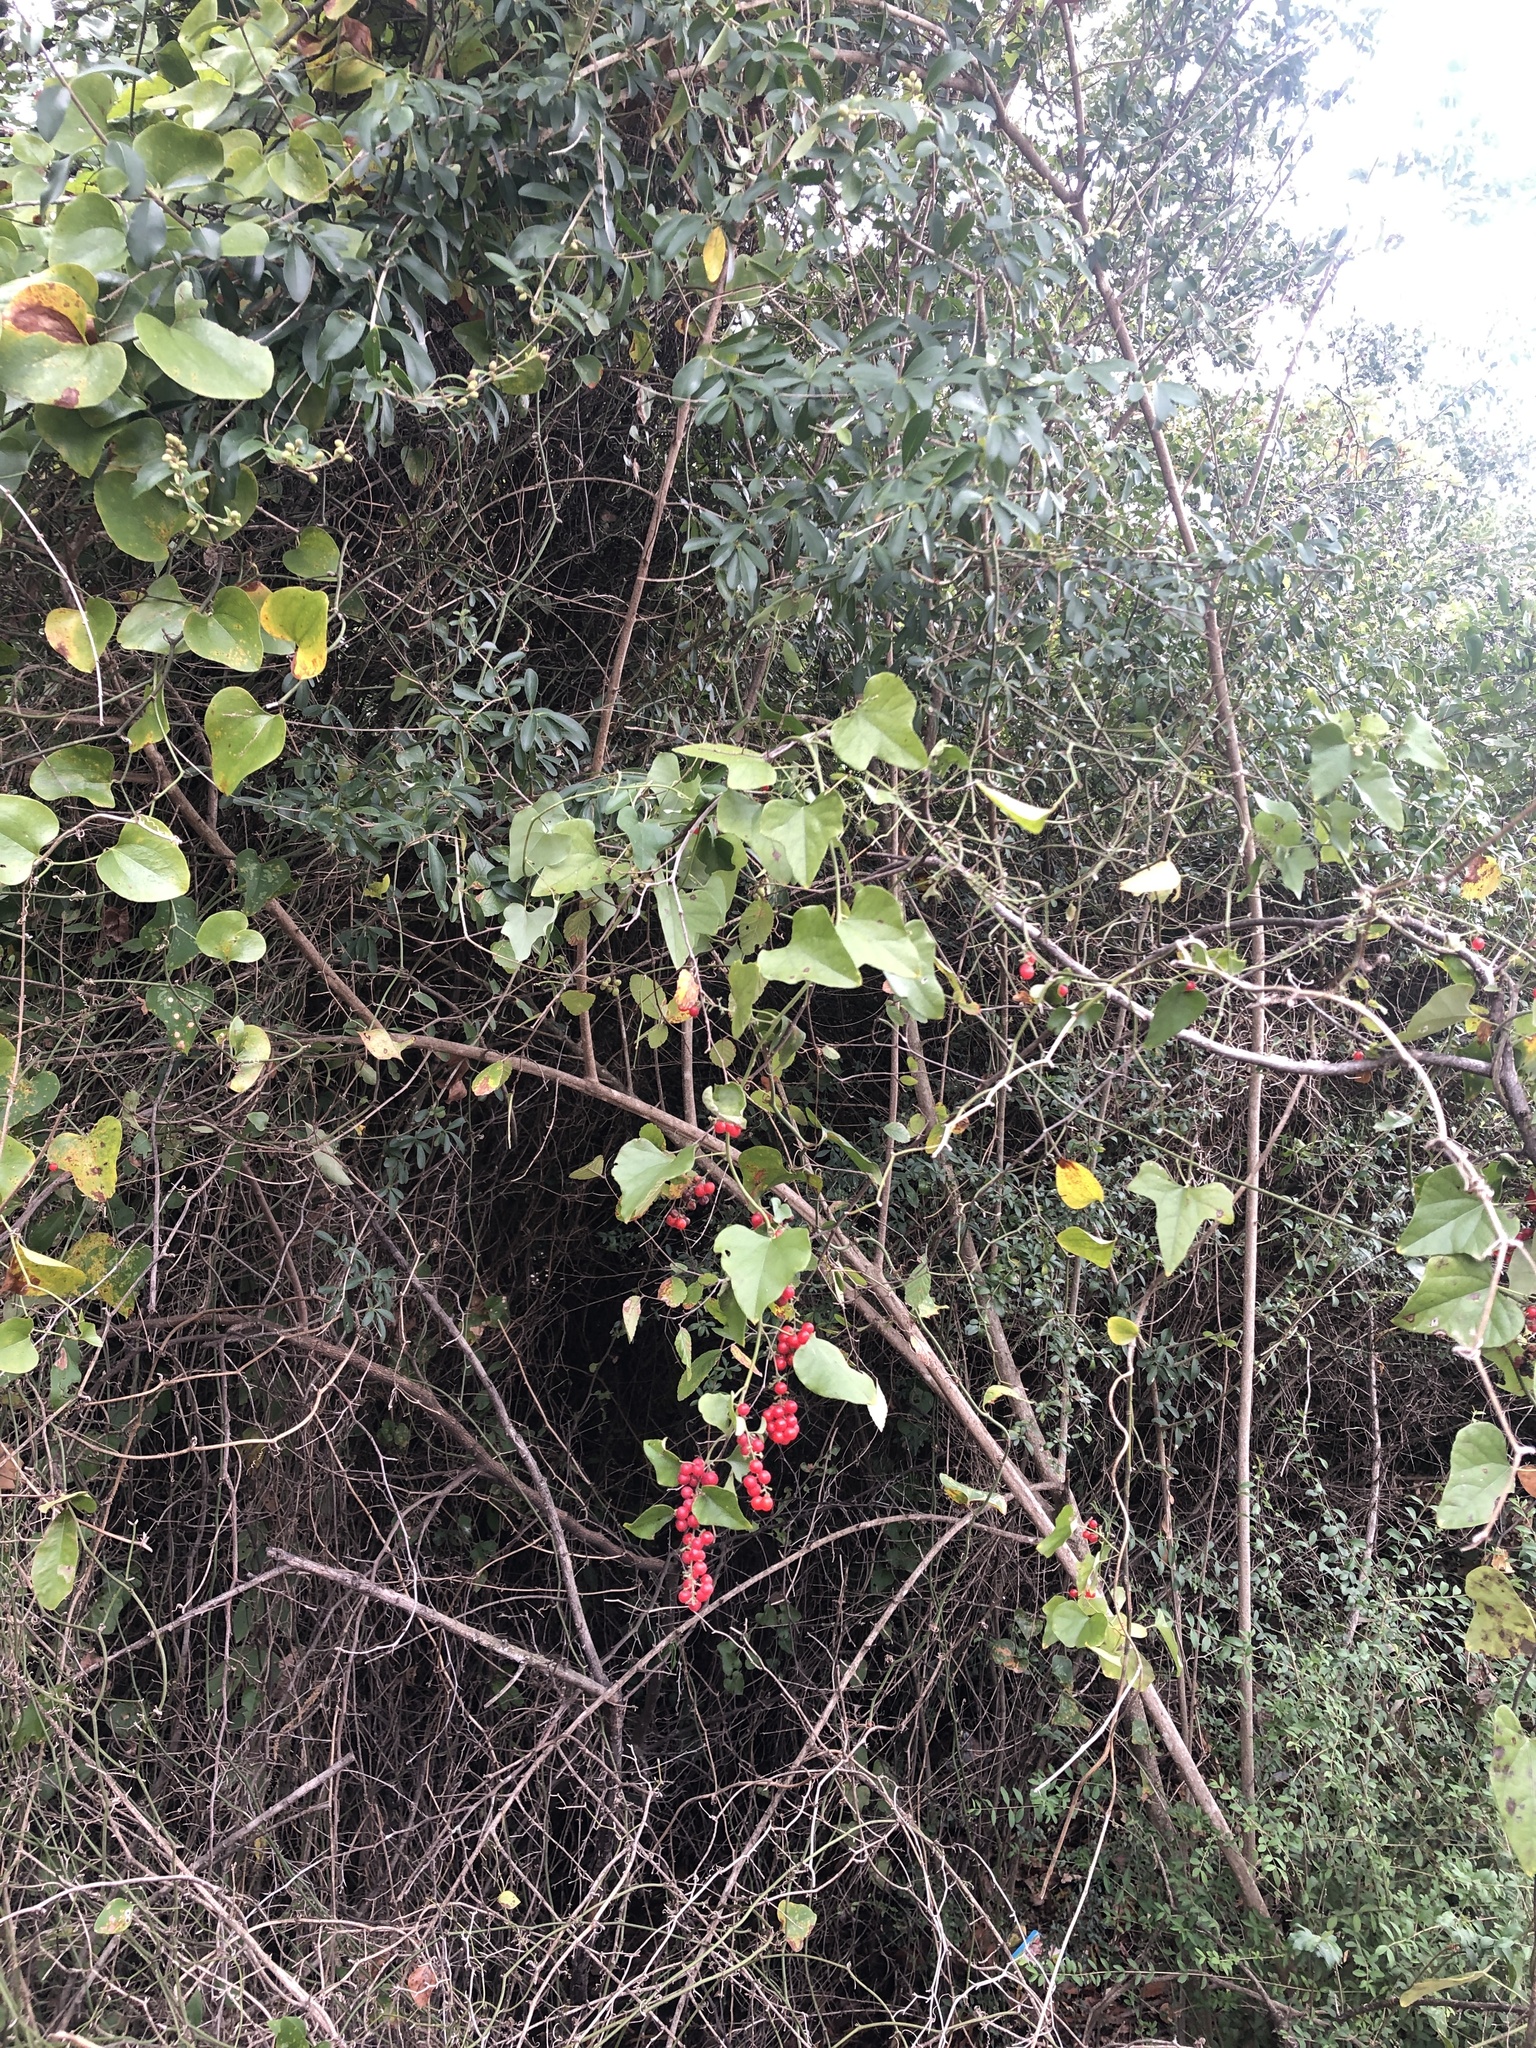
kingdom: Plantae
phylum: Tracheophyta
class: Magnoliopsida
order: Ranunculales
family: Menispermaceae
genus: Cocculus
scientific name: Cocculus carolinus
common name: Carolina moonseed
